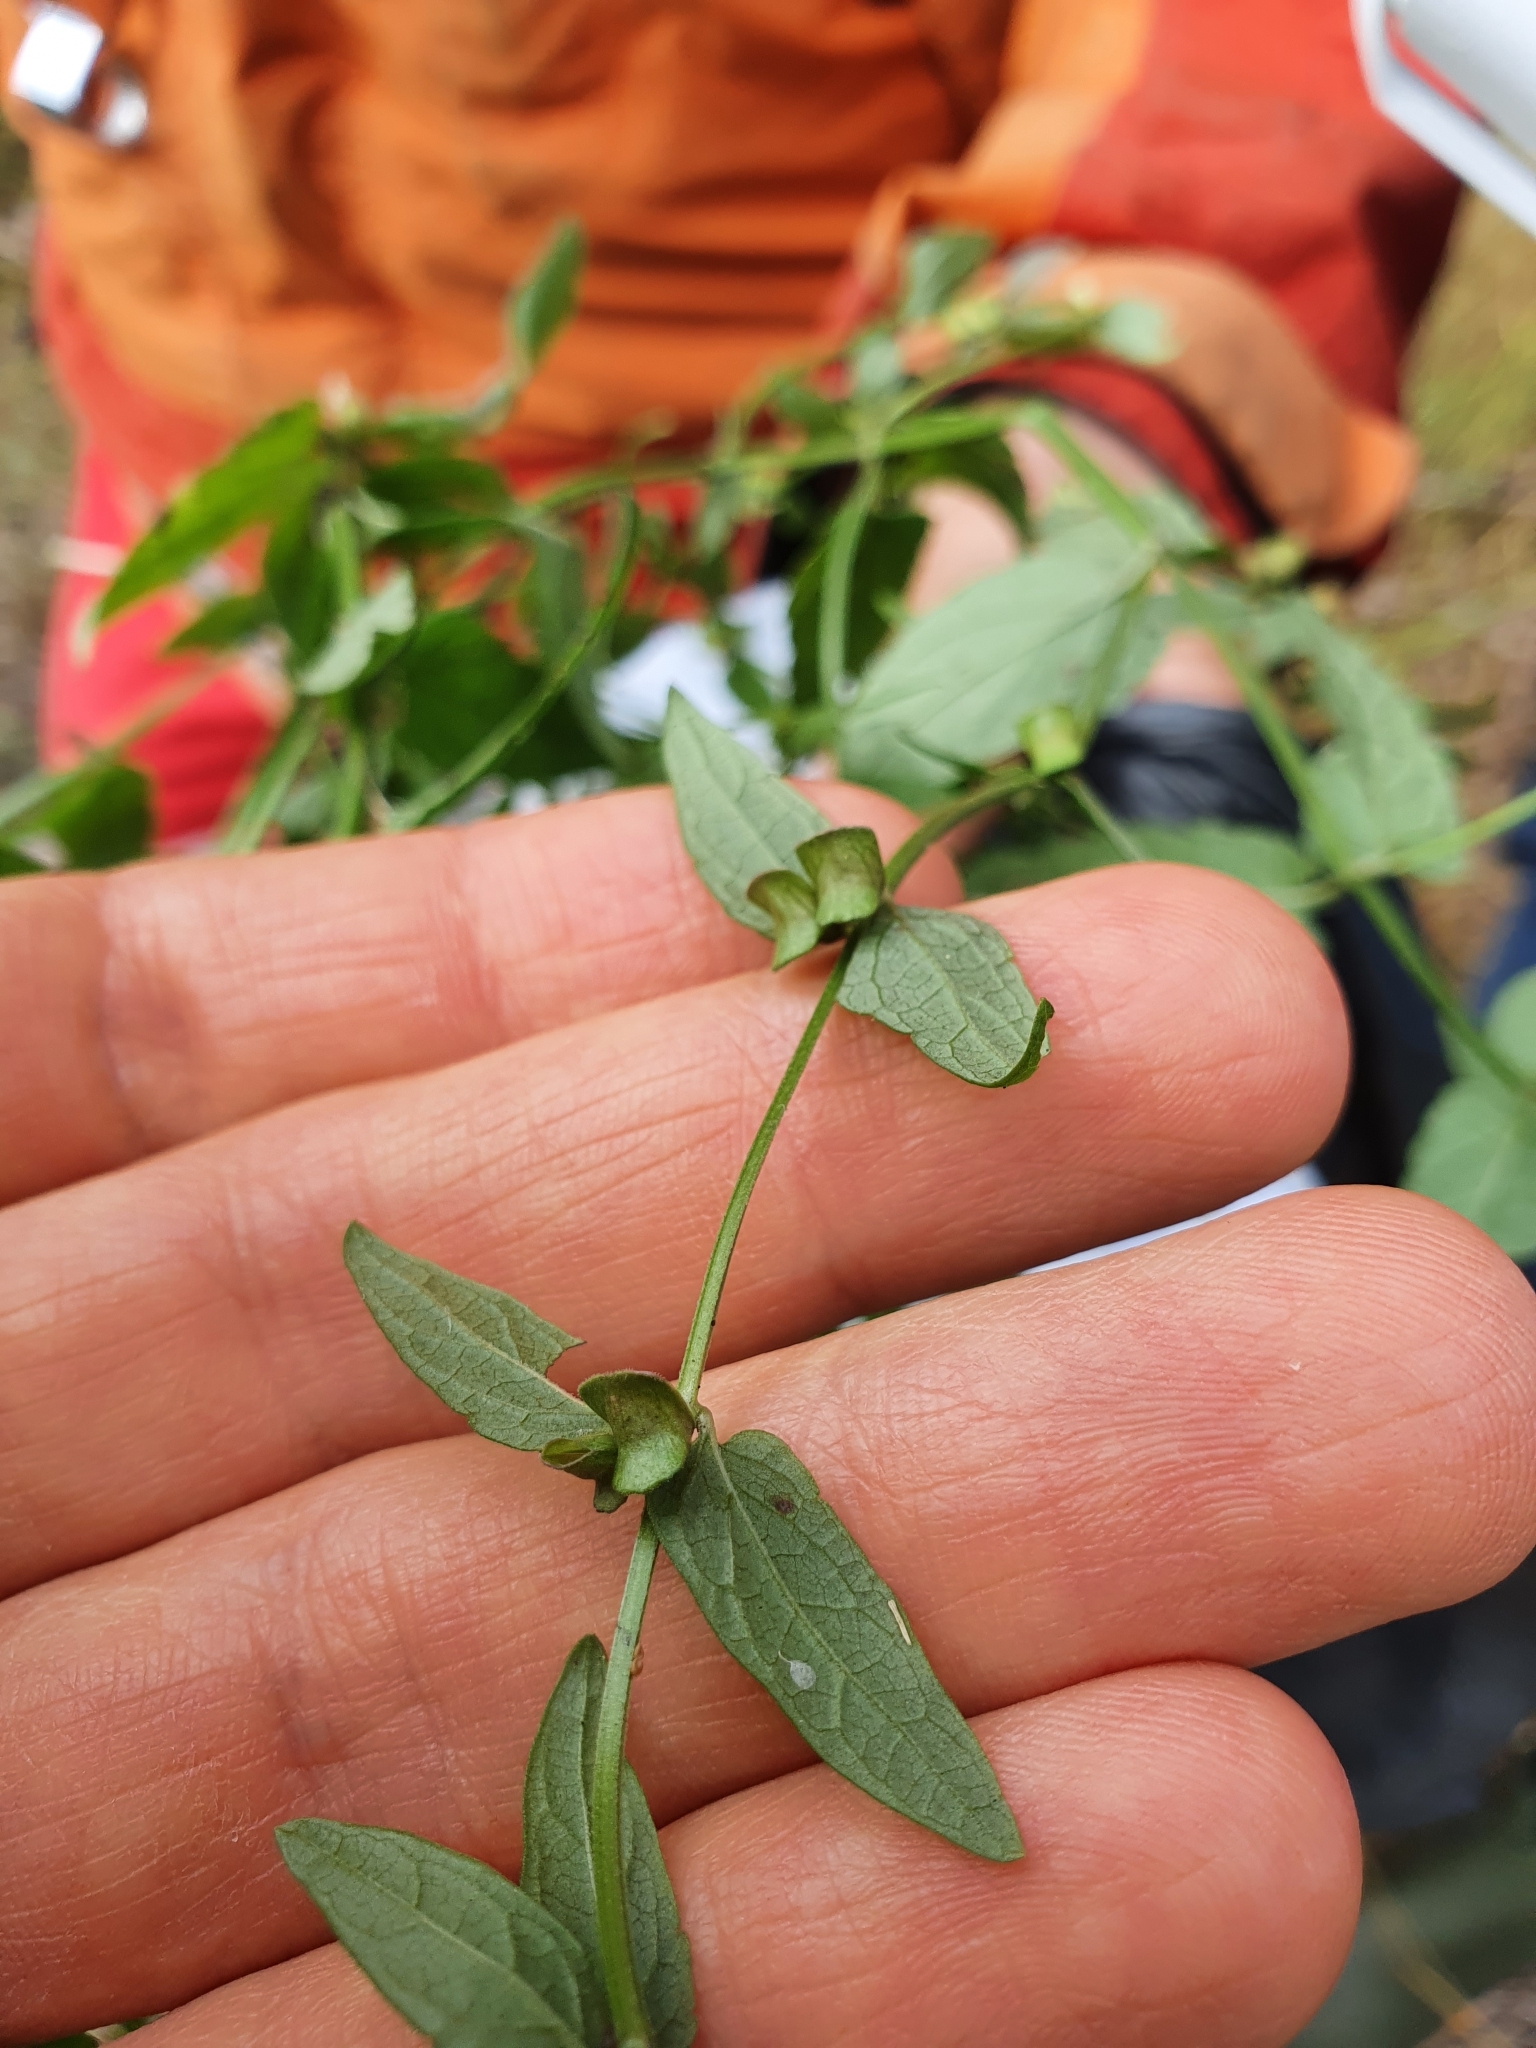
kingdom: Plantae
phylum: Tracheophyta
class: Magnoliopsida
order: Lamiales
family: Lamiaceae
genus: Scutellaria
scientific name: Scutellaria galericulata
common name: Skullcap
